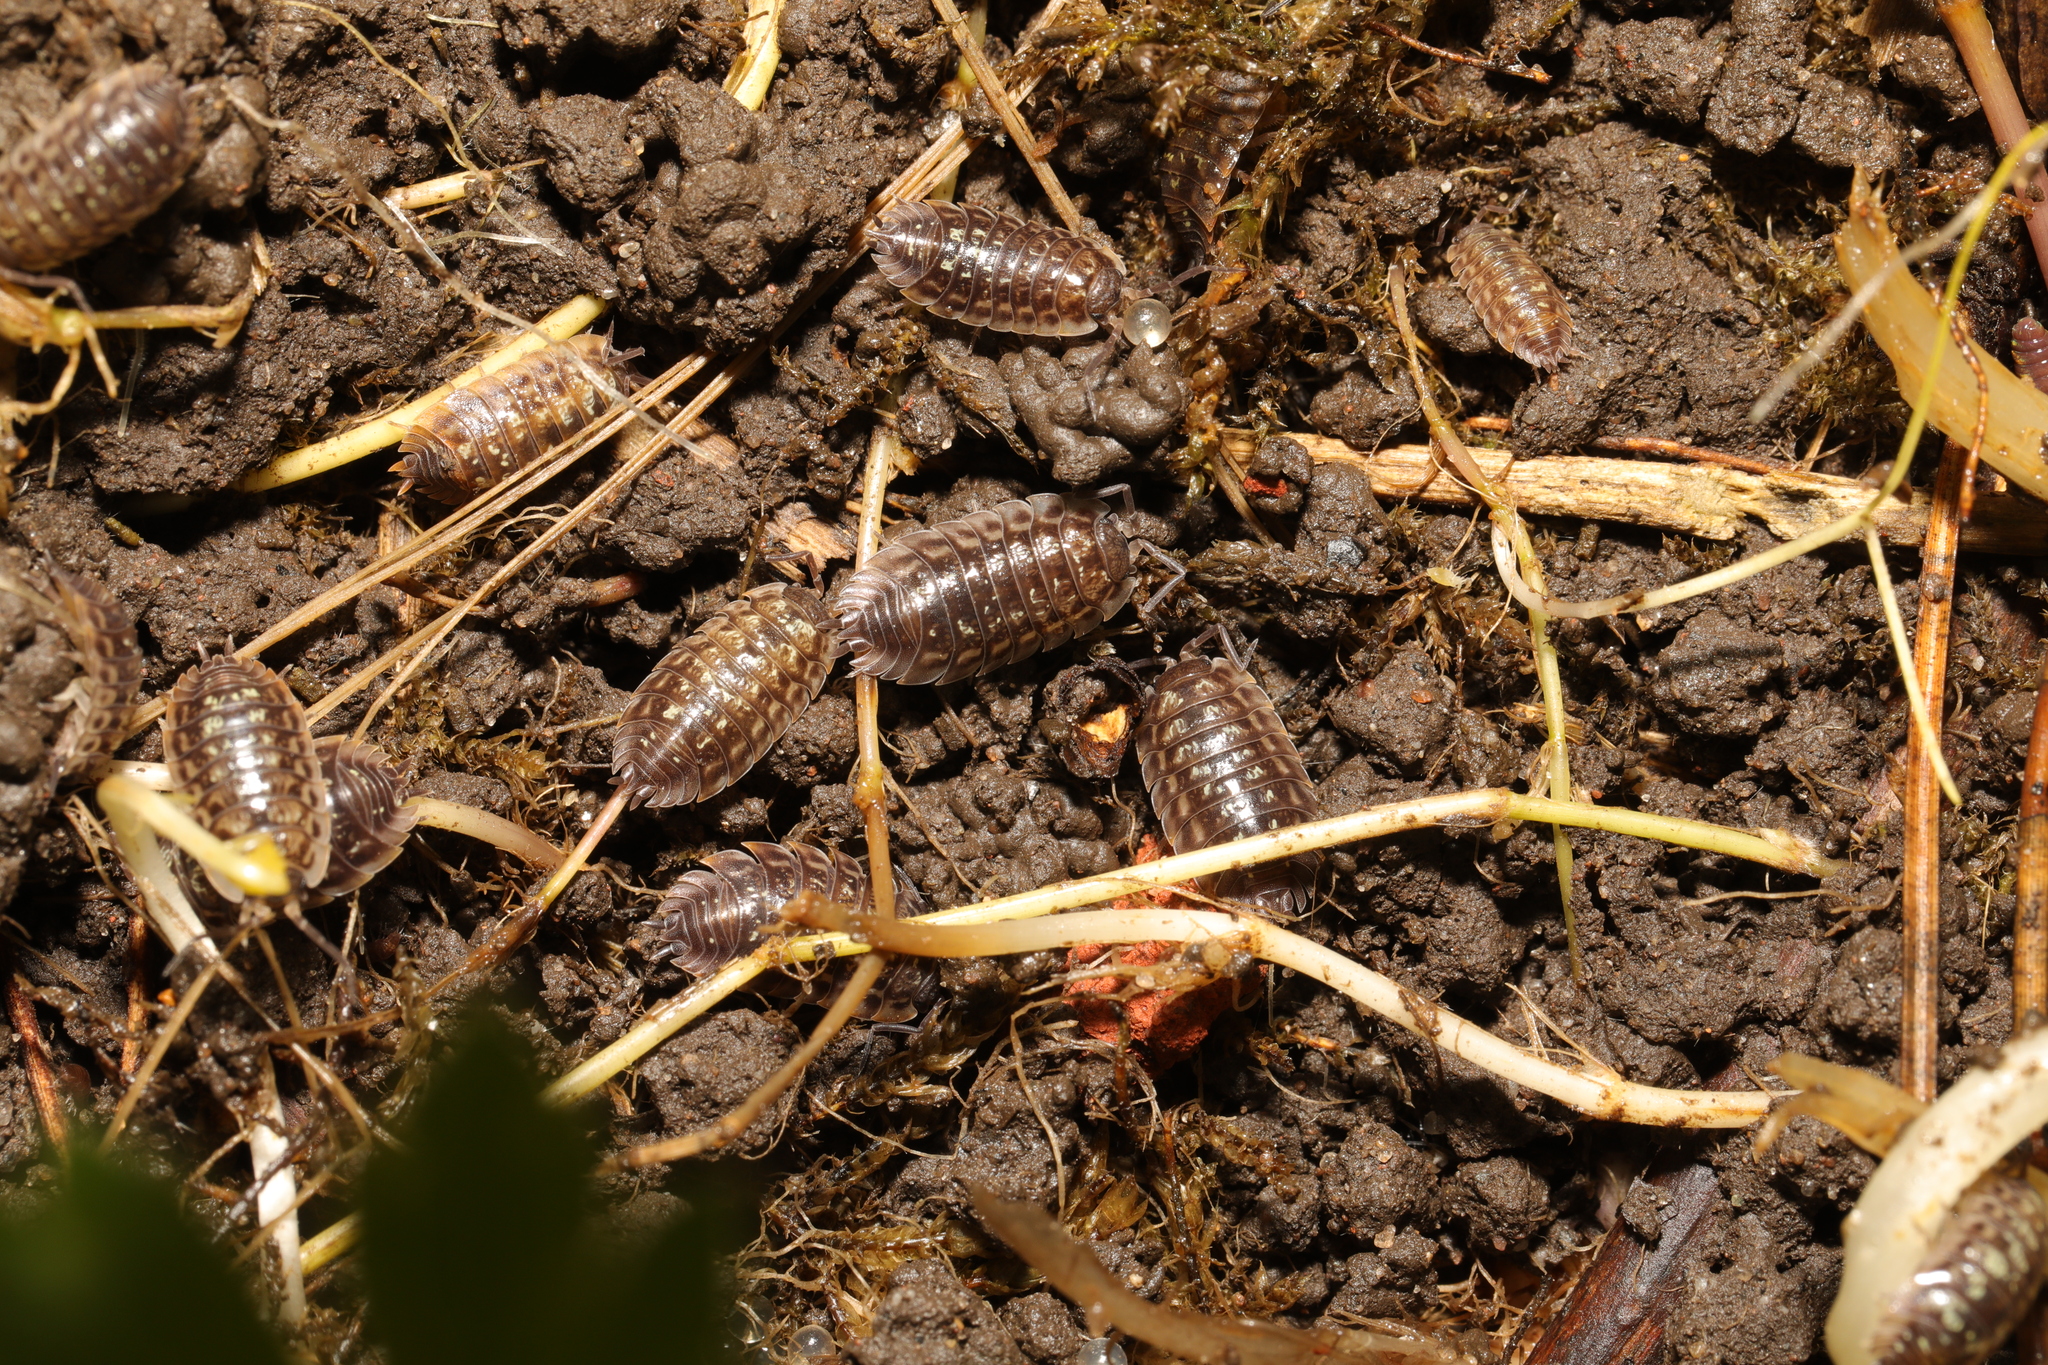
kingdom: Animalia
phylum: Arthropoda
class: Malacostraca
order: Isopoda
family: Oniscidae
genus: Oniscus
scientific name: Oniscus asellus
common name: Common shiny woodlouse
